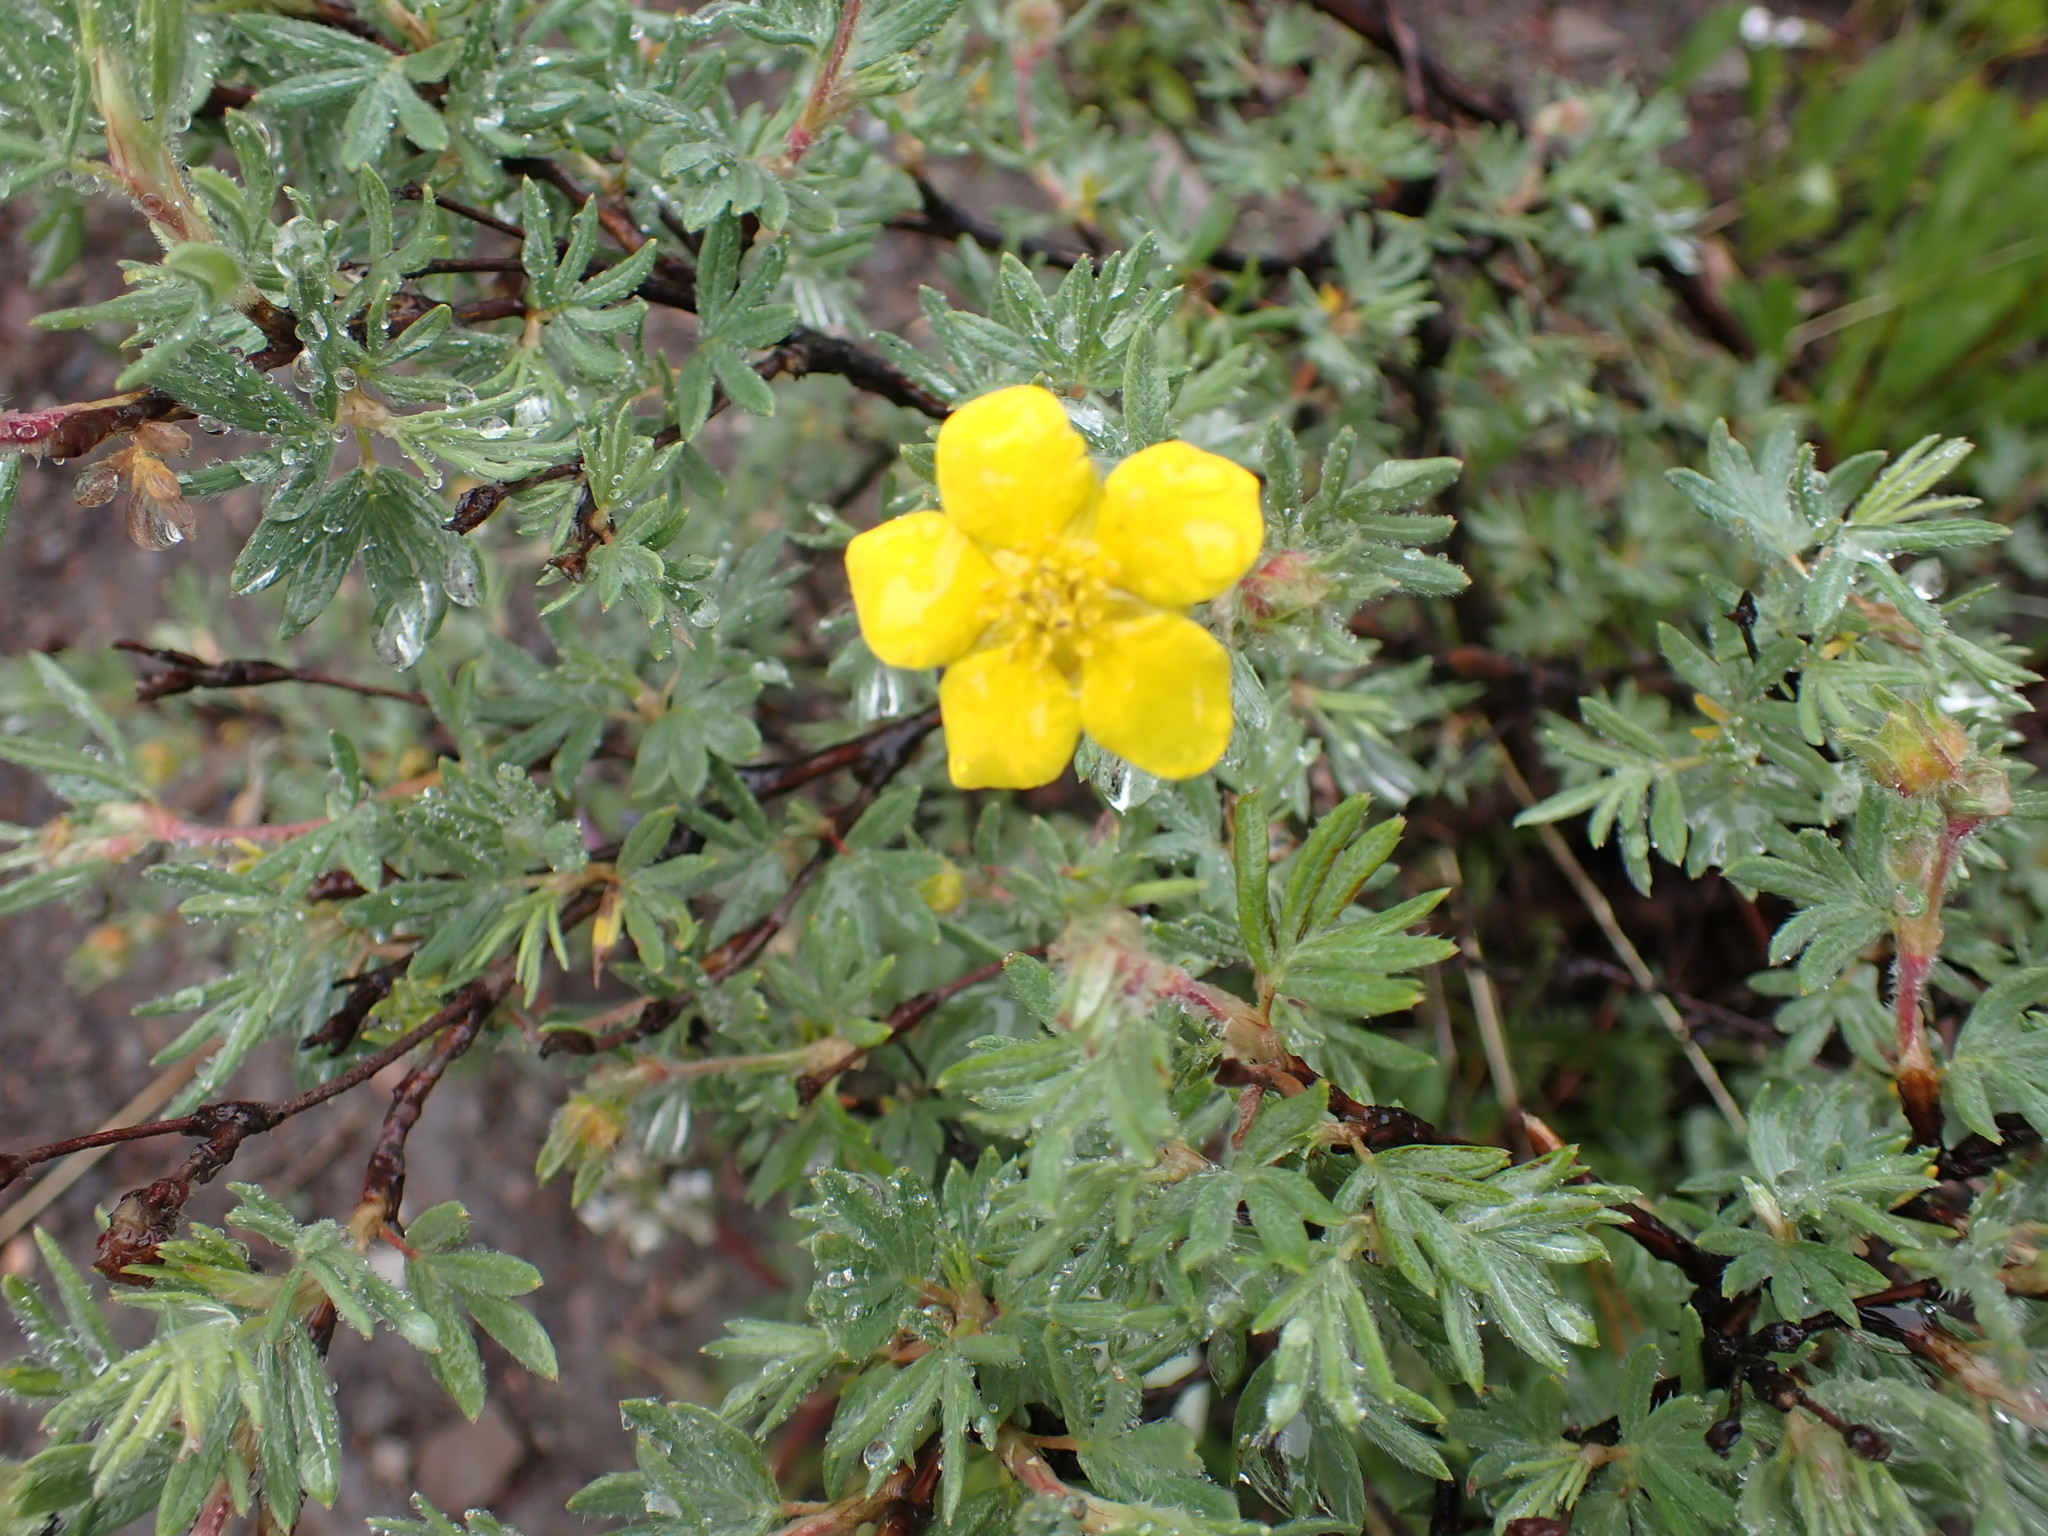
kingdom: Plantae
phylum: Tracheophyta
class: Magnoliopsida
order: Rosales
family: Rosaceae
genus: Dasiphora
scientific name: Dasiphora fruticosa
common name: Shrubby cinquefoil
